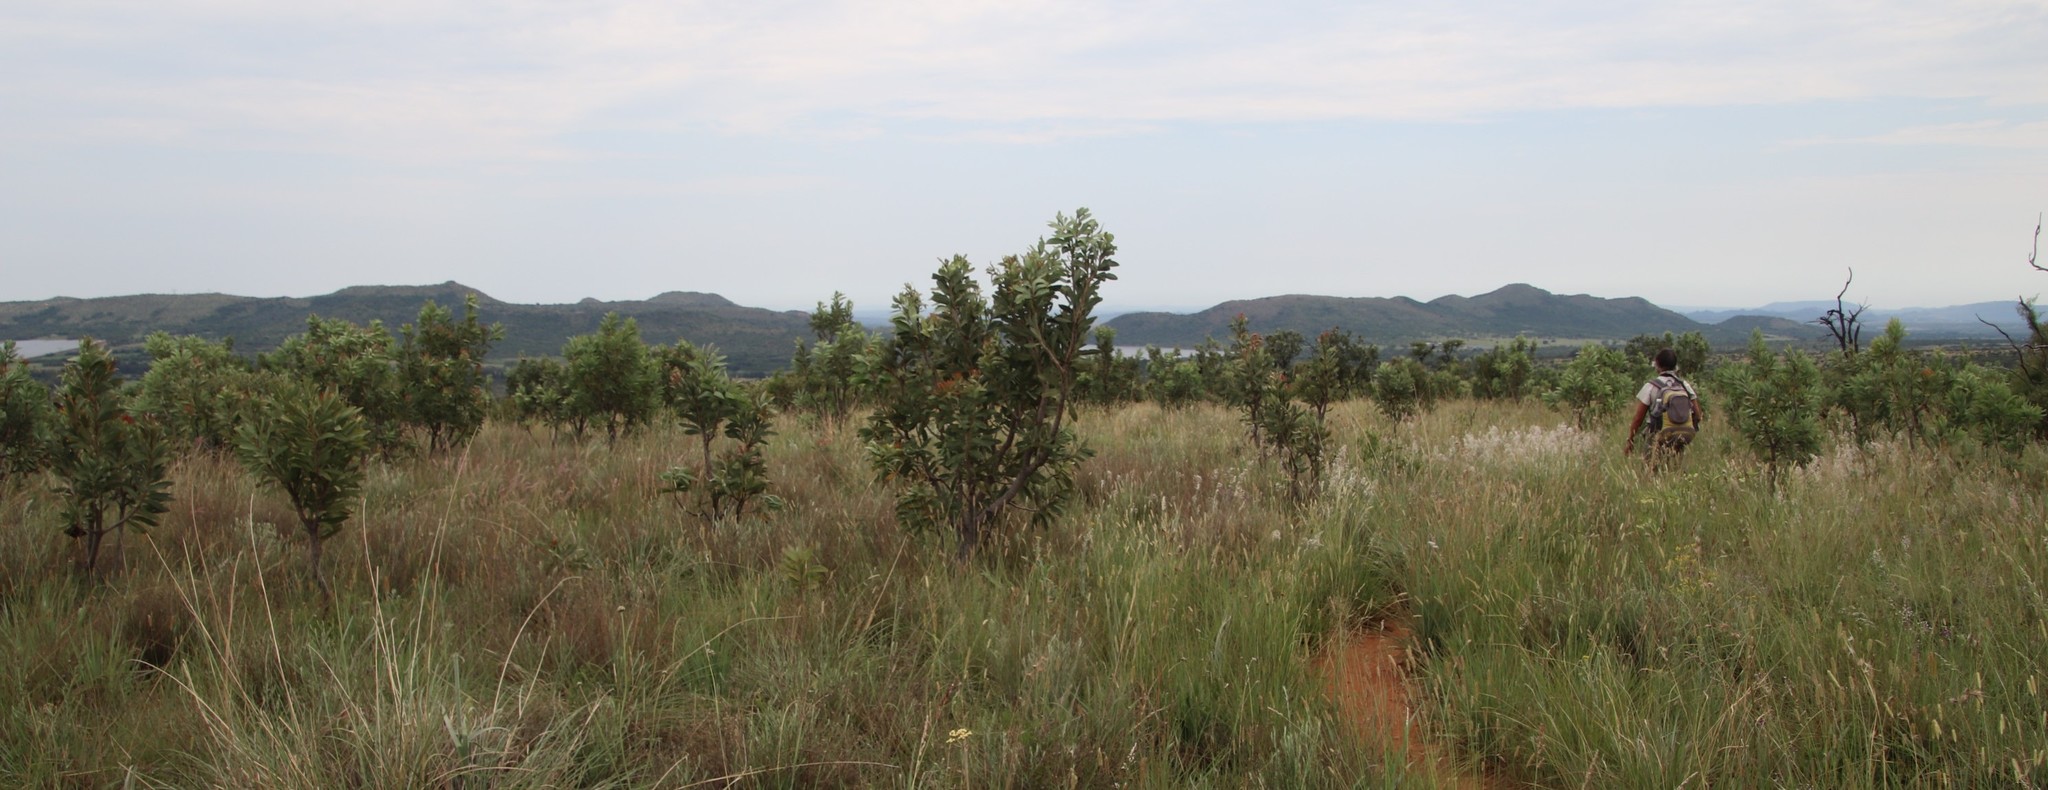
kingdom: Plantae
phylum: Tracheophyta
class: Magnoliopsida
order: Proteales
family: Proteaceae
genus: Protea
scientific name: Protea caffra
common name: Common sugarbush
